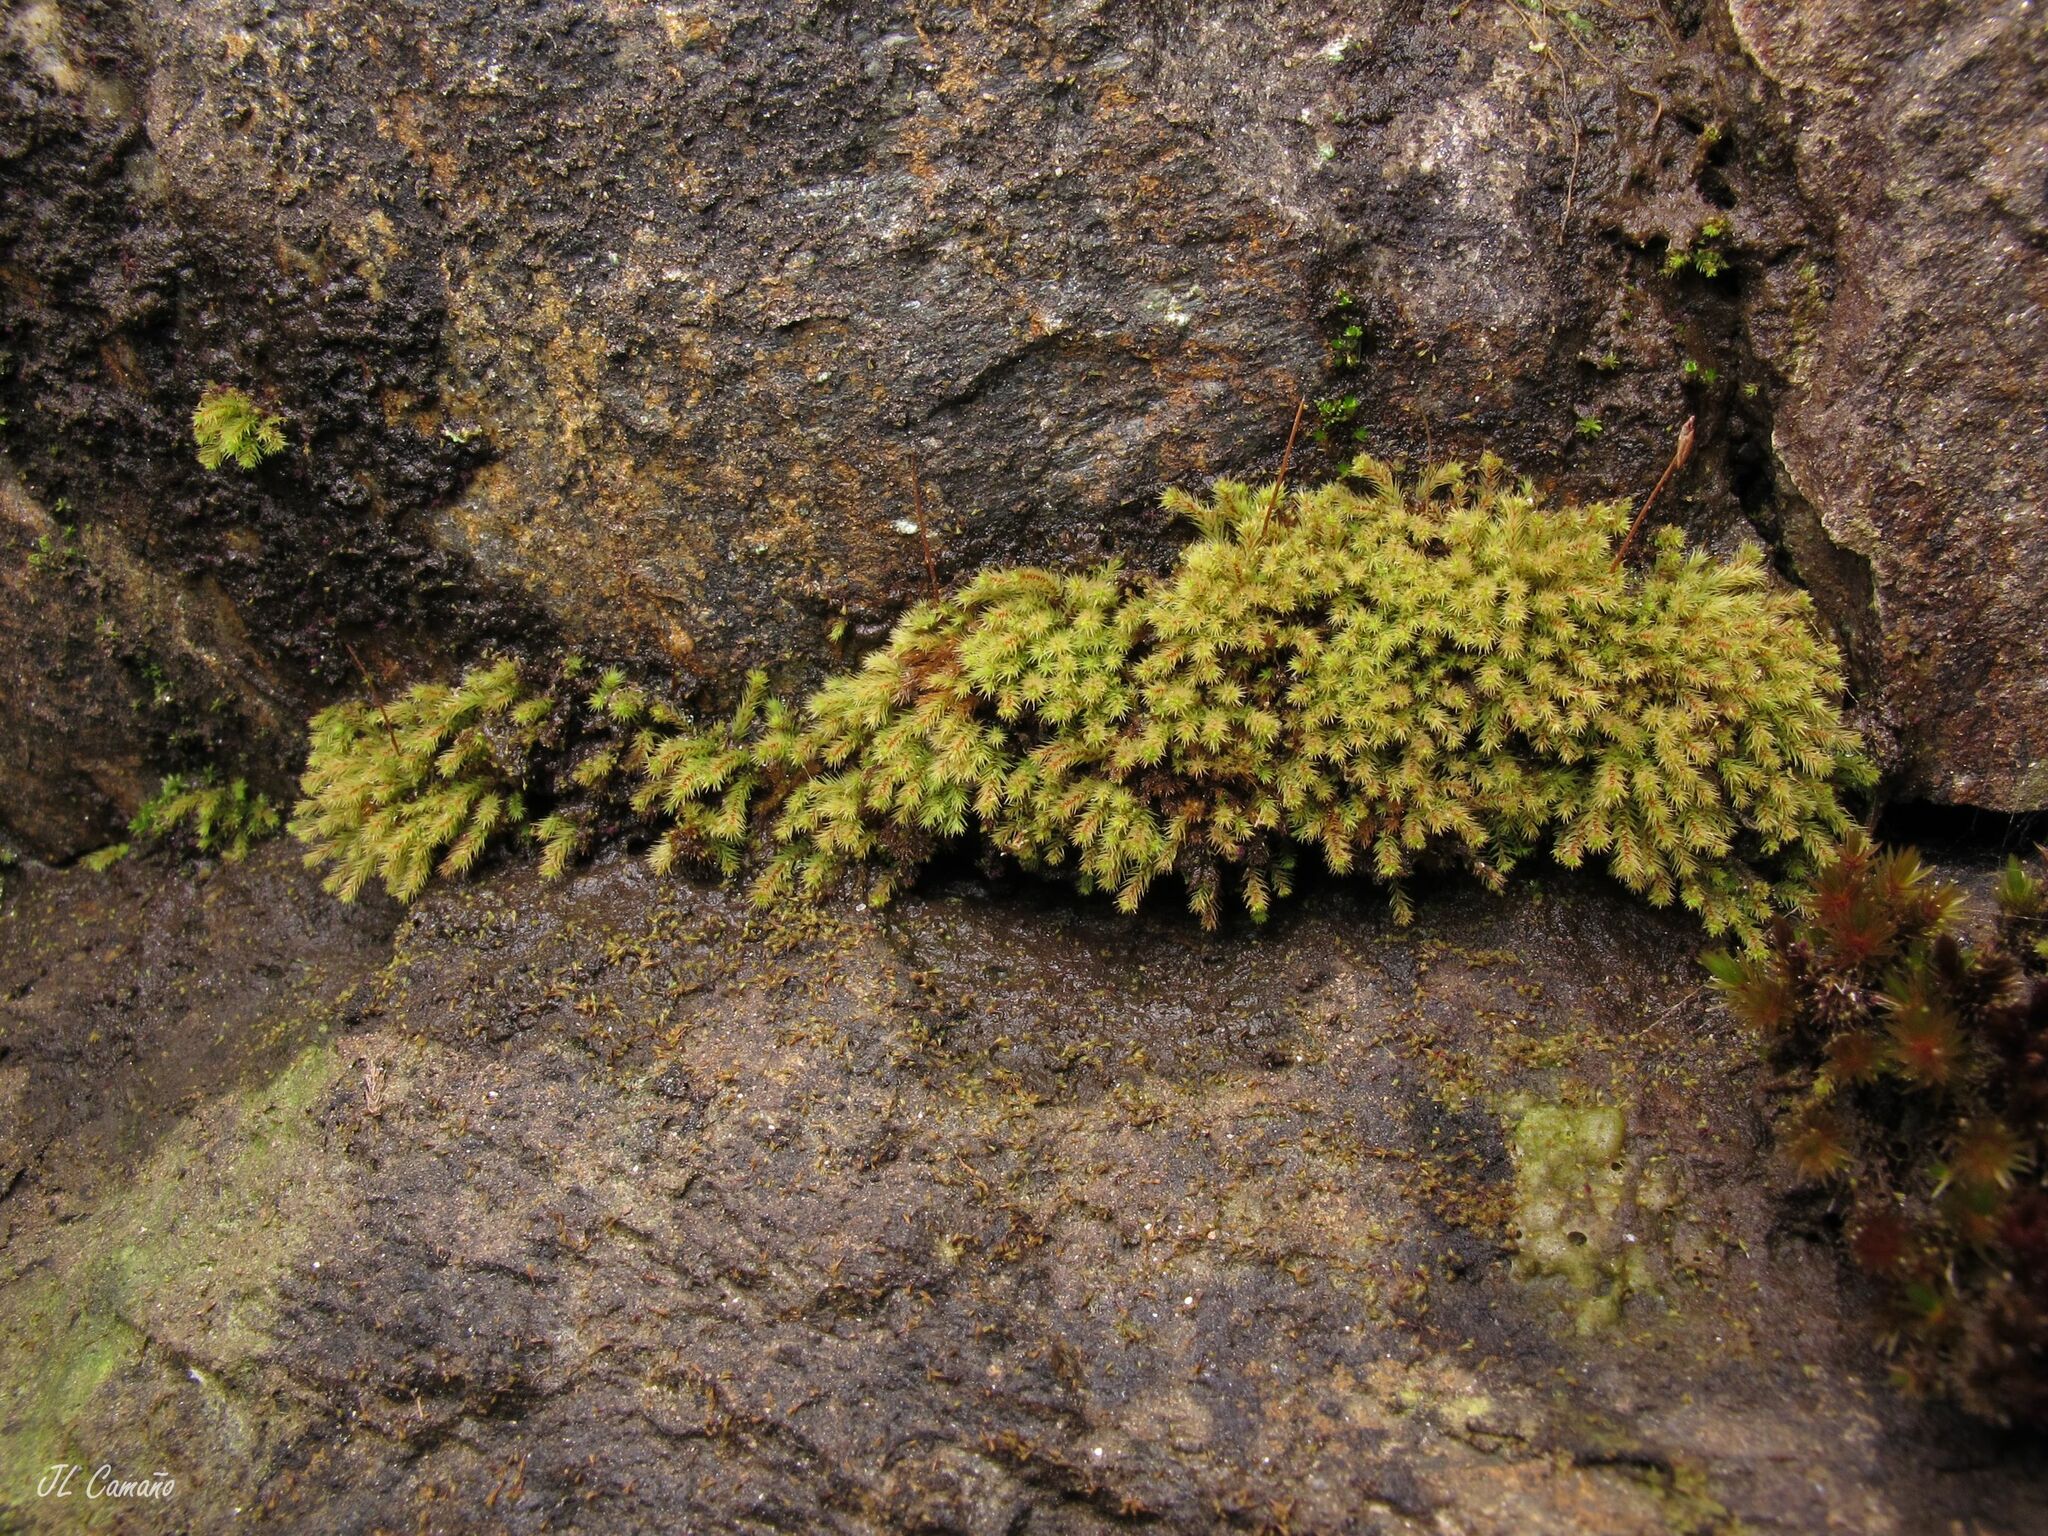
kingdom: Plantae
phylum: Bryophyta
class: Bryopsida
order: Bartramiales
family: Bartramiaceae
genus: Philonotis
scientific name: Philonotis rigida
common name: Rigid apple-moss
